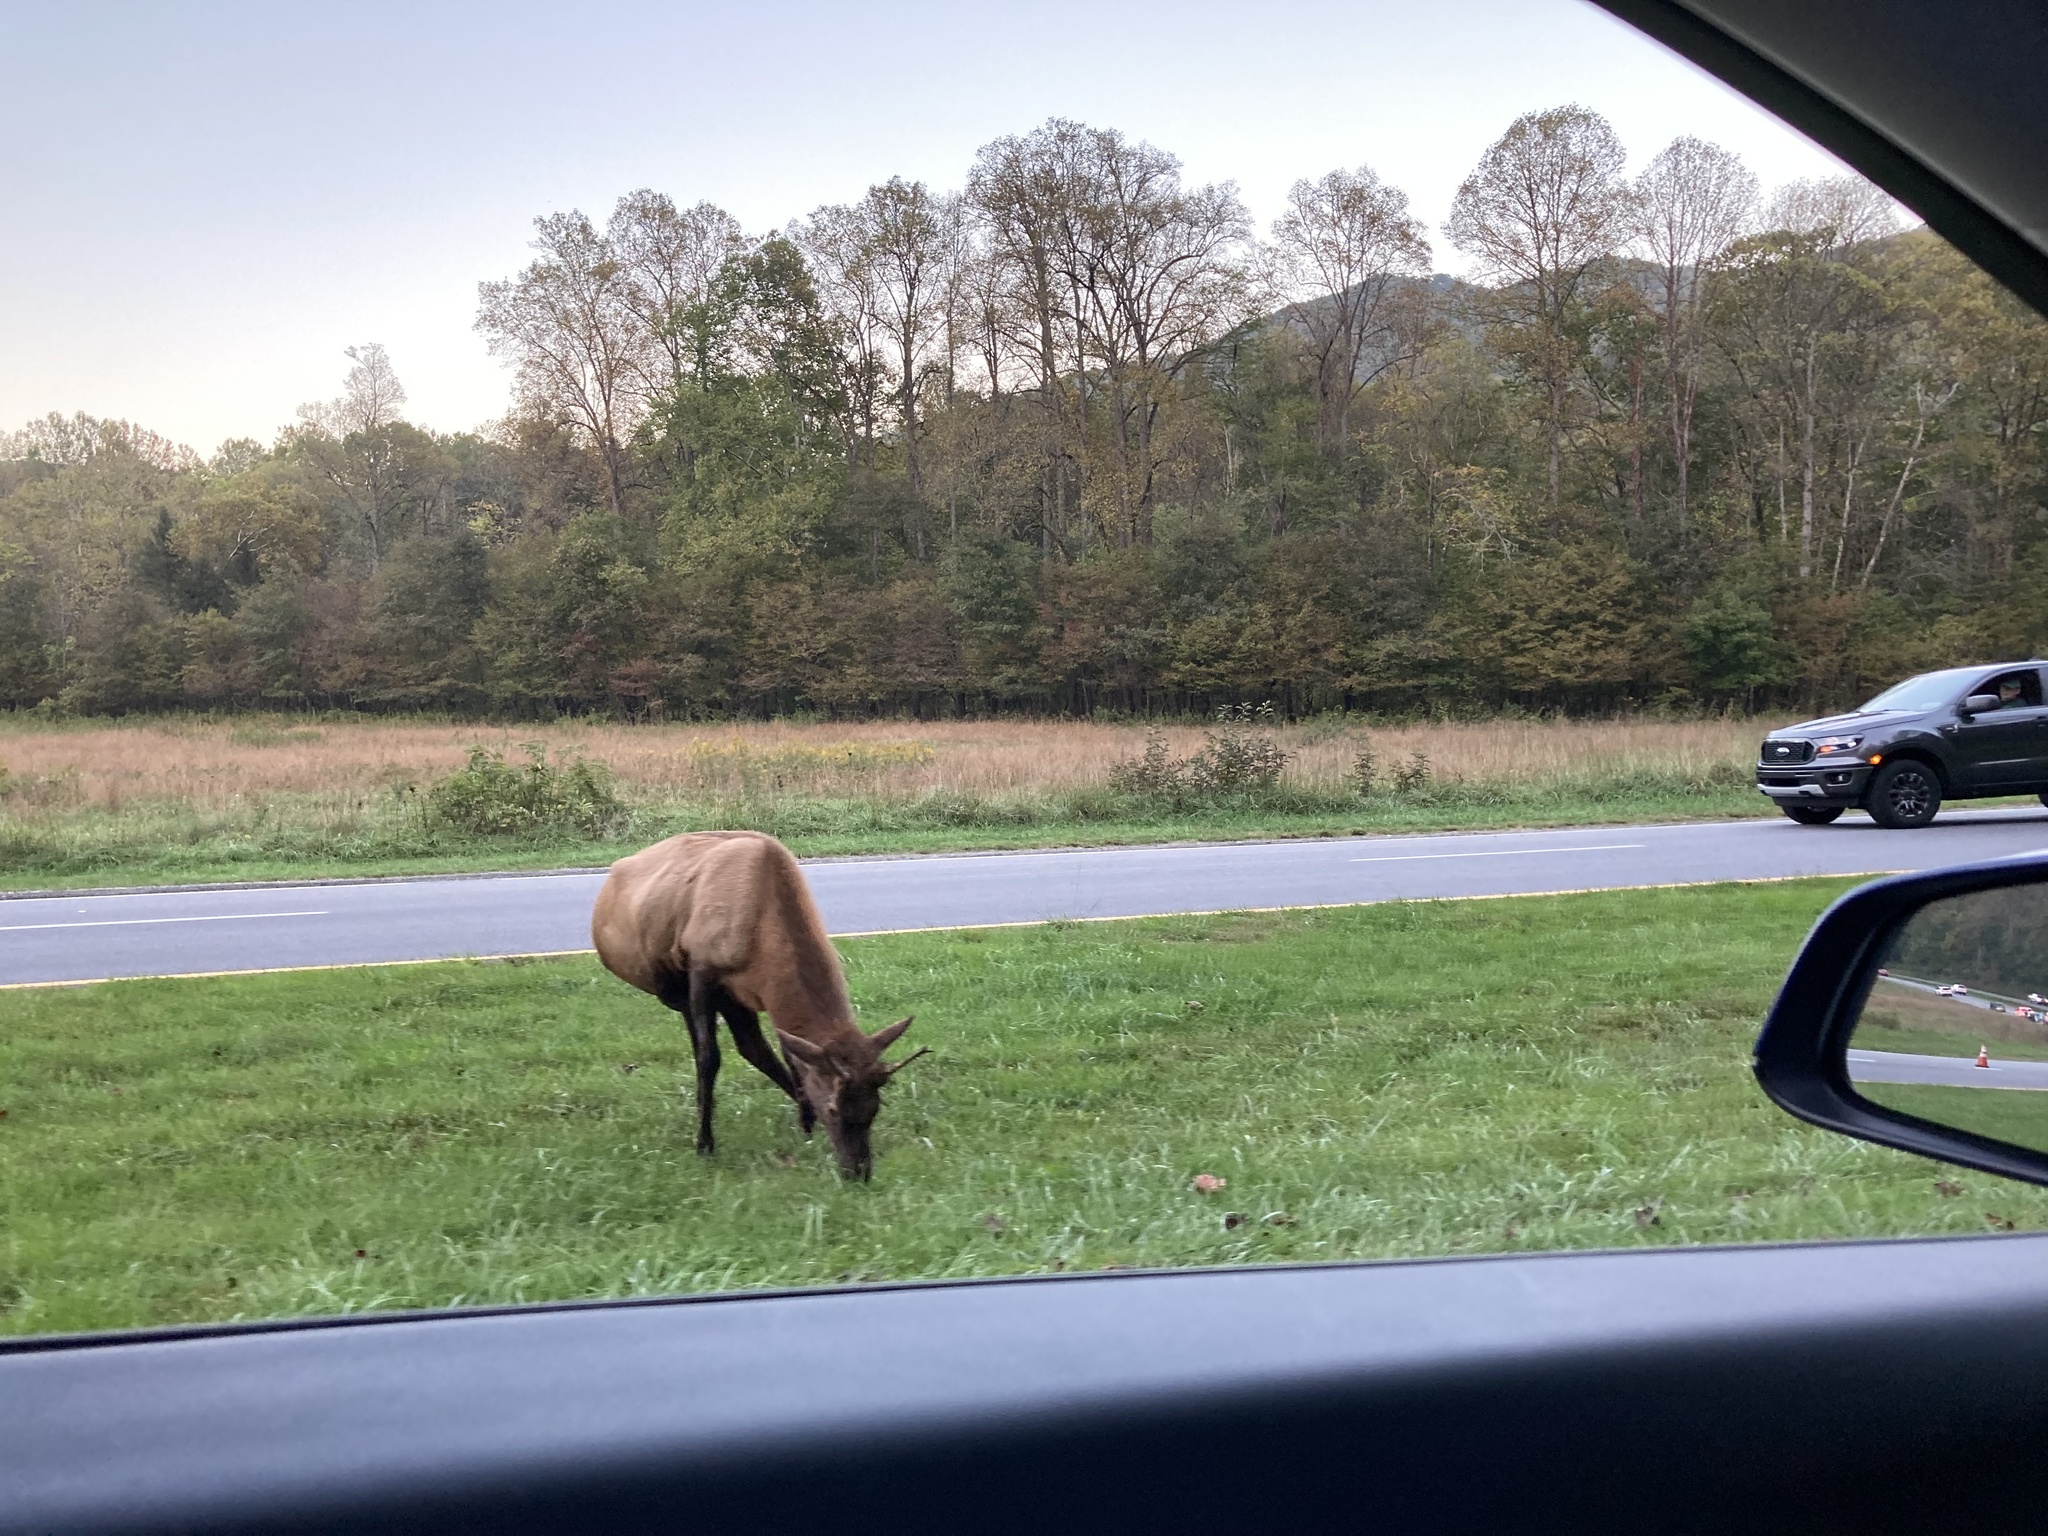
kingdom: Animalia
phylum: Chordata
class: Mammalia
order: Artiodactyla
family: Cervidae
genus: Cervus
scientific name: Cervus elaphus
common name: Red deer
